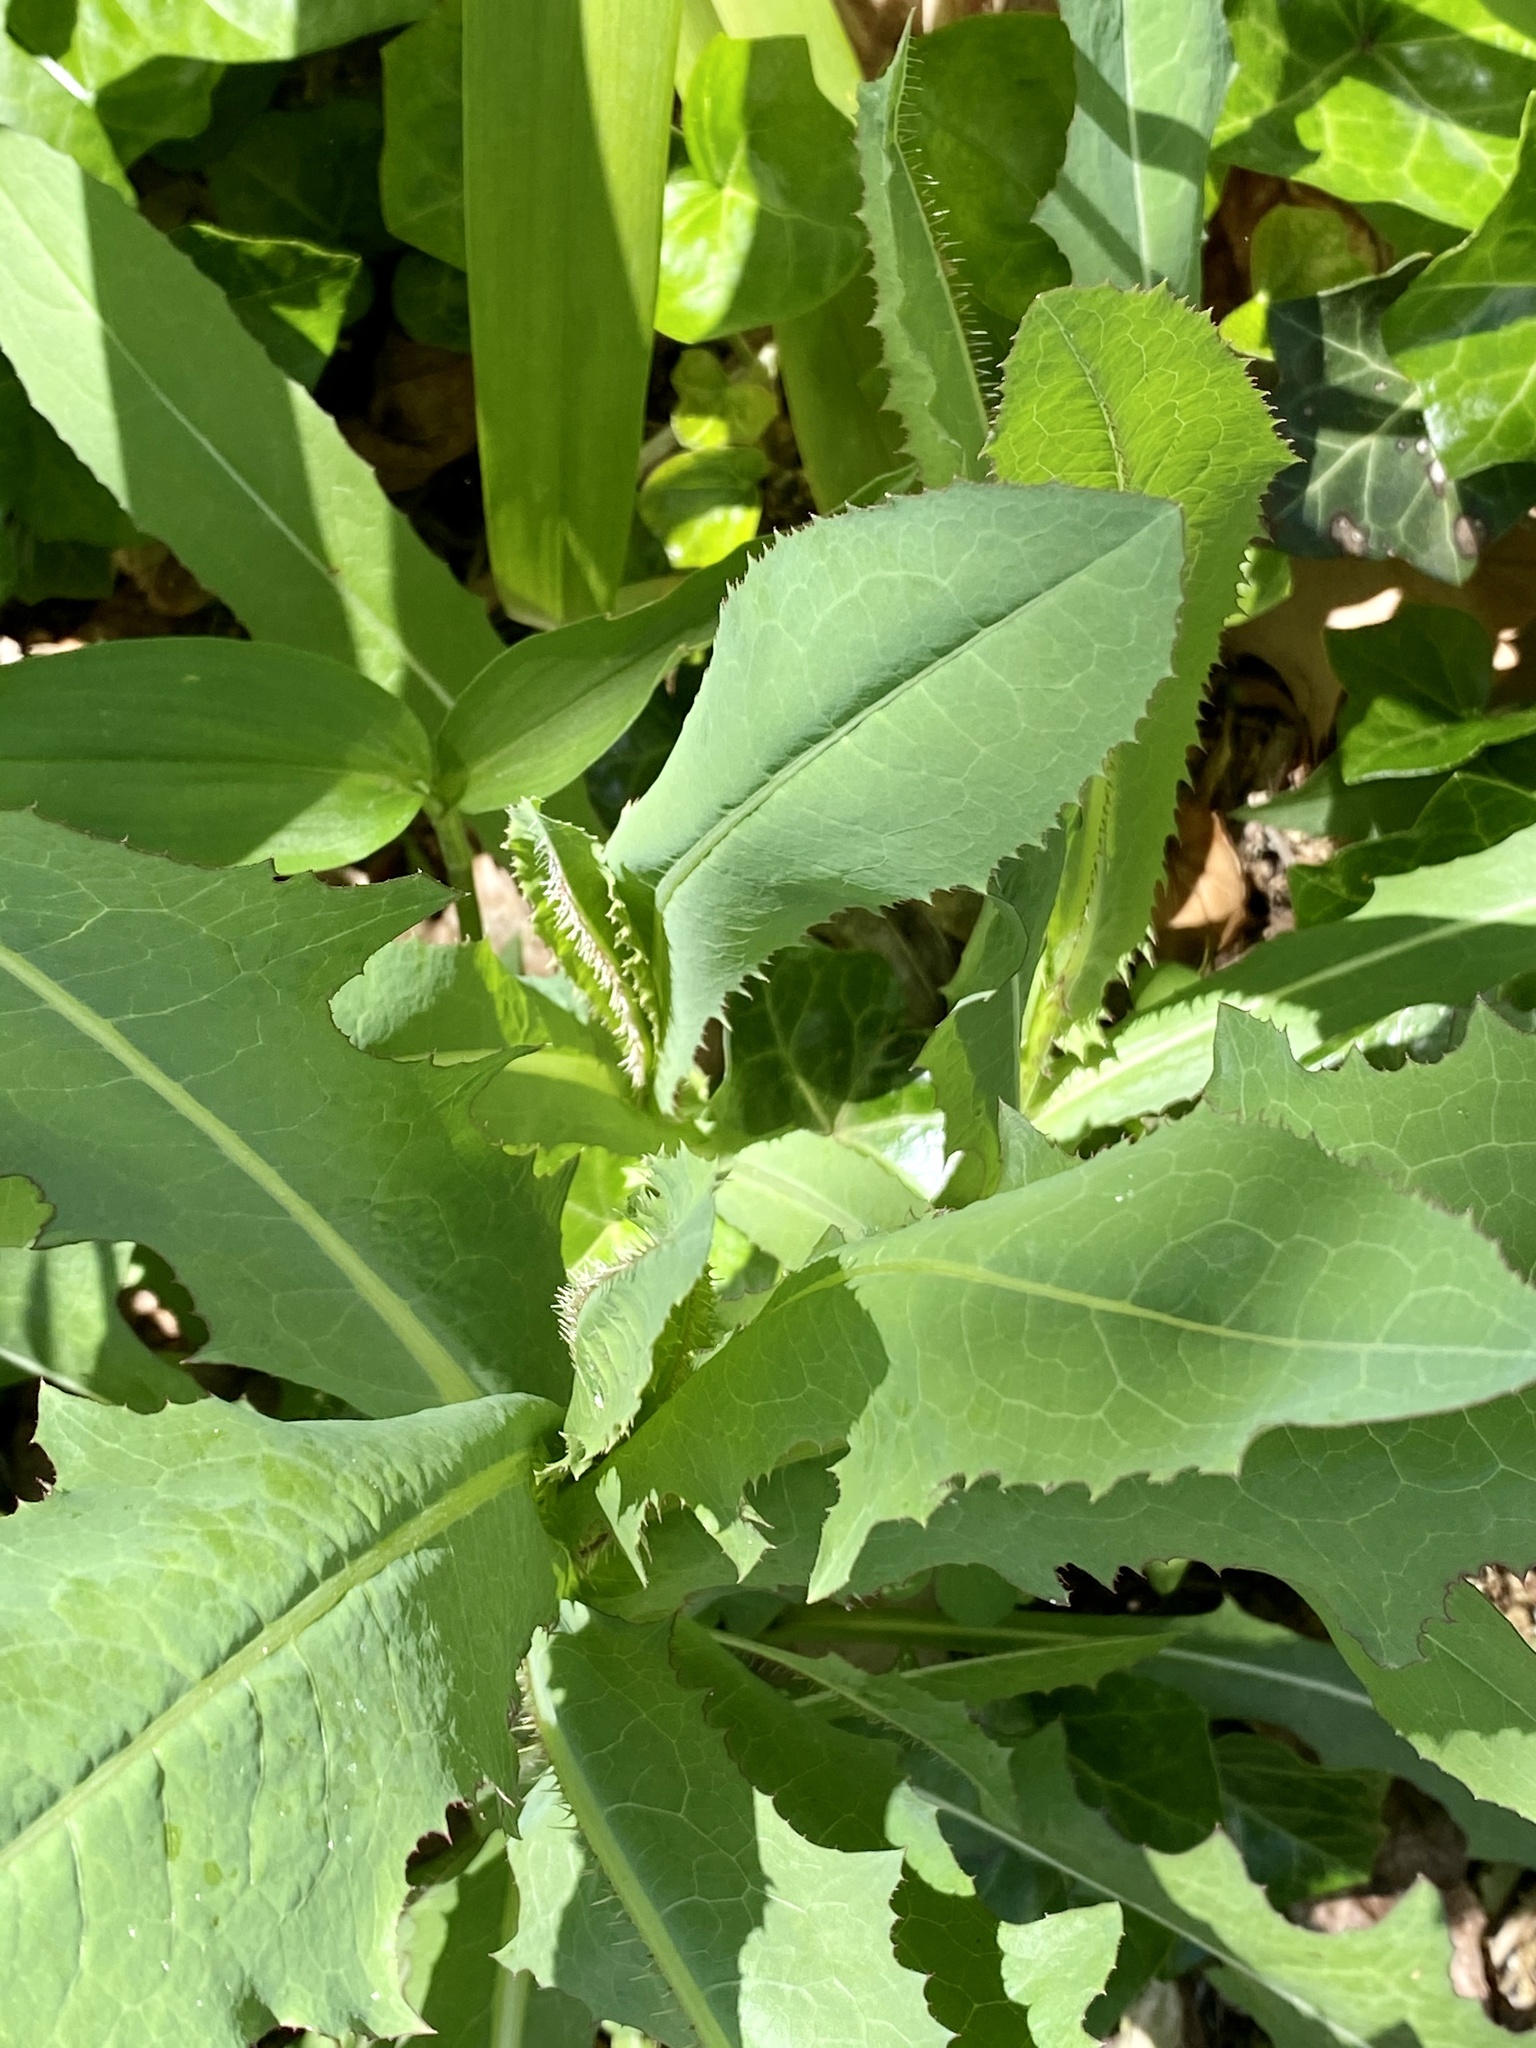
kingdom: Plantae
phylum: Tracheophyta
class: Magnoliopsida
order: Asterales
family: Asteraceae
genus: Lactuca
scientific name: Lactuca serriola
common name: Prickly lettuce
